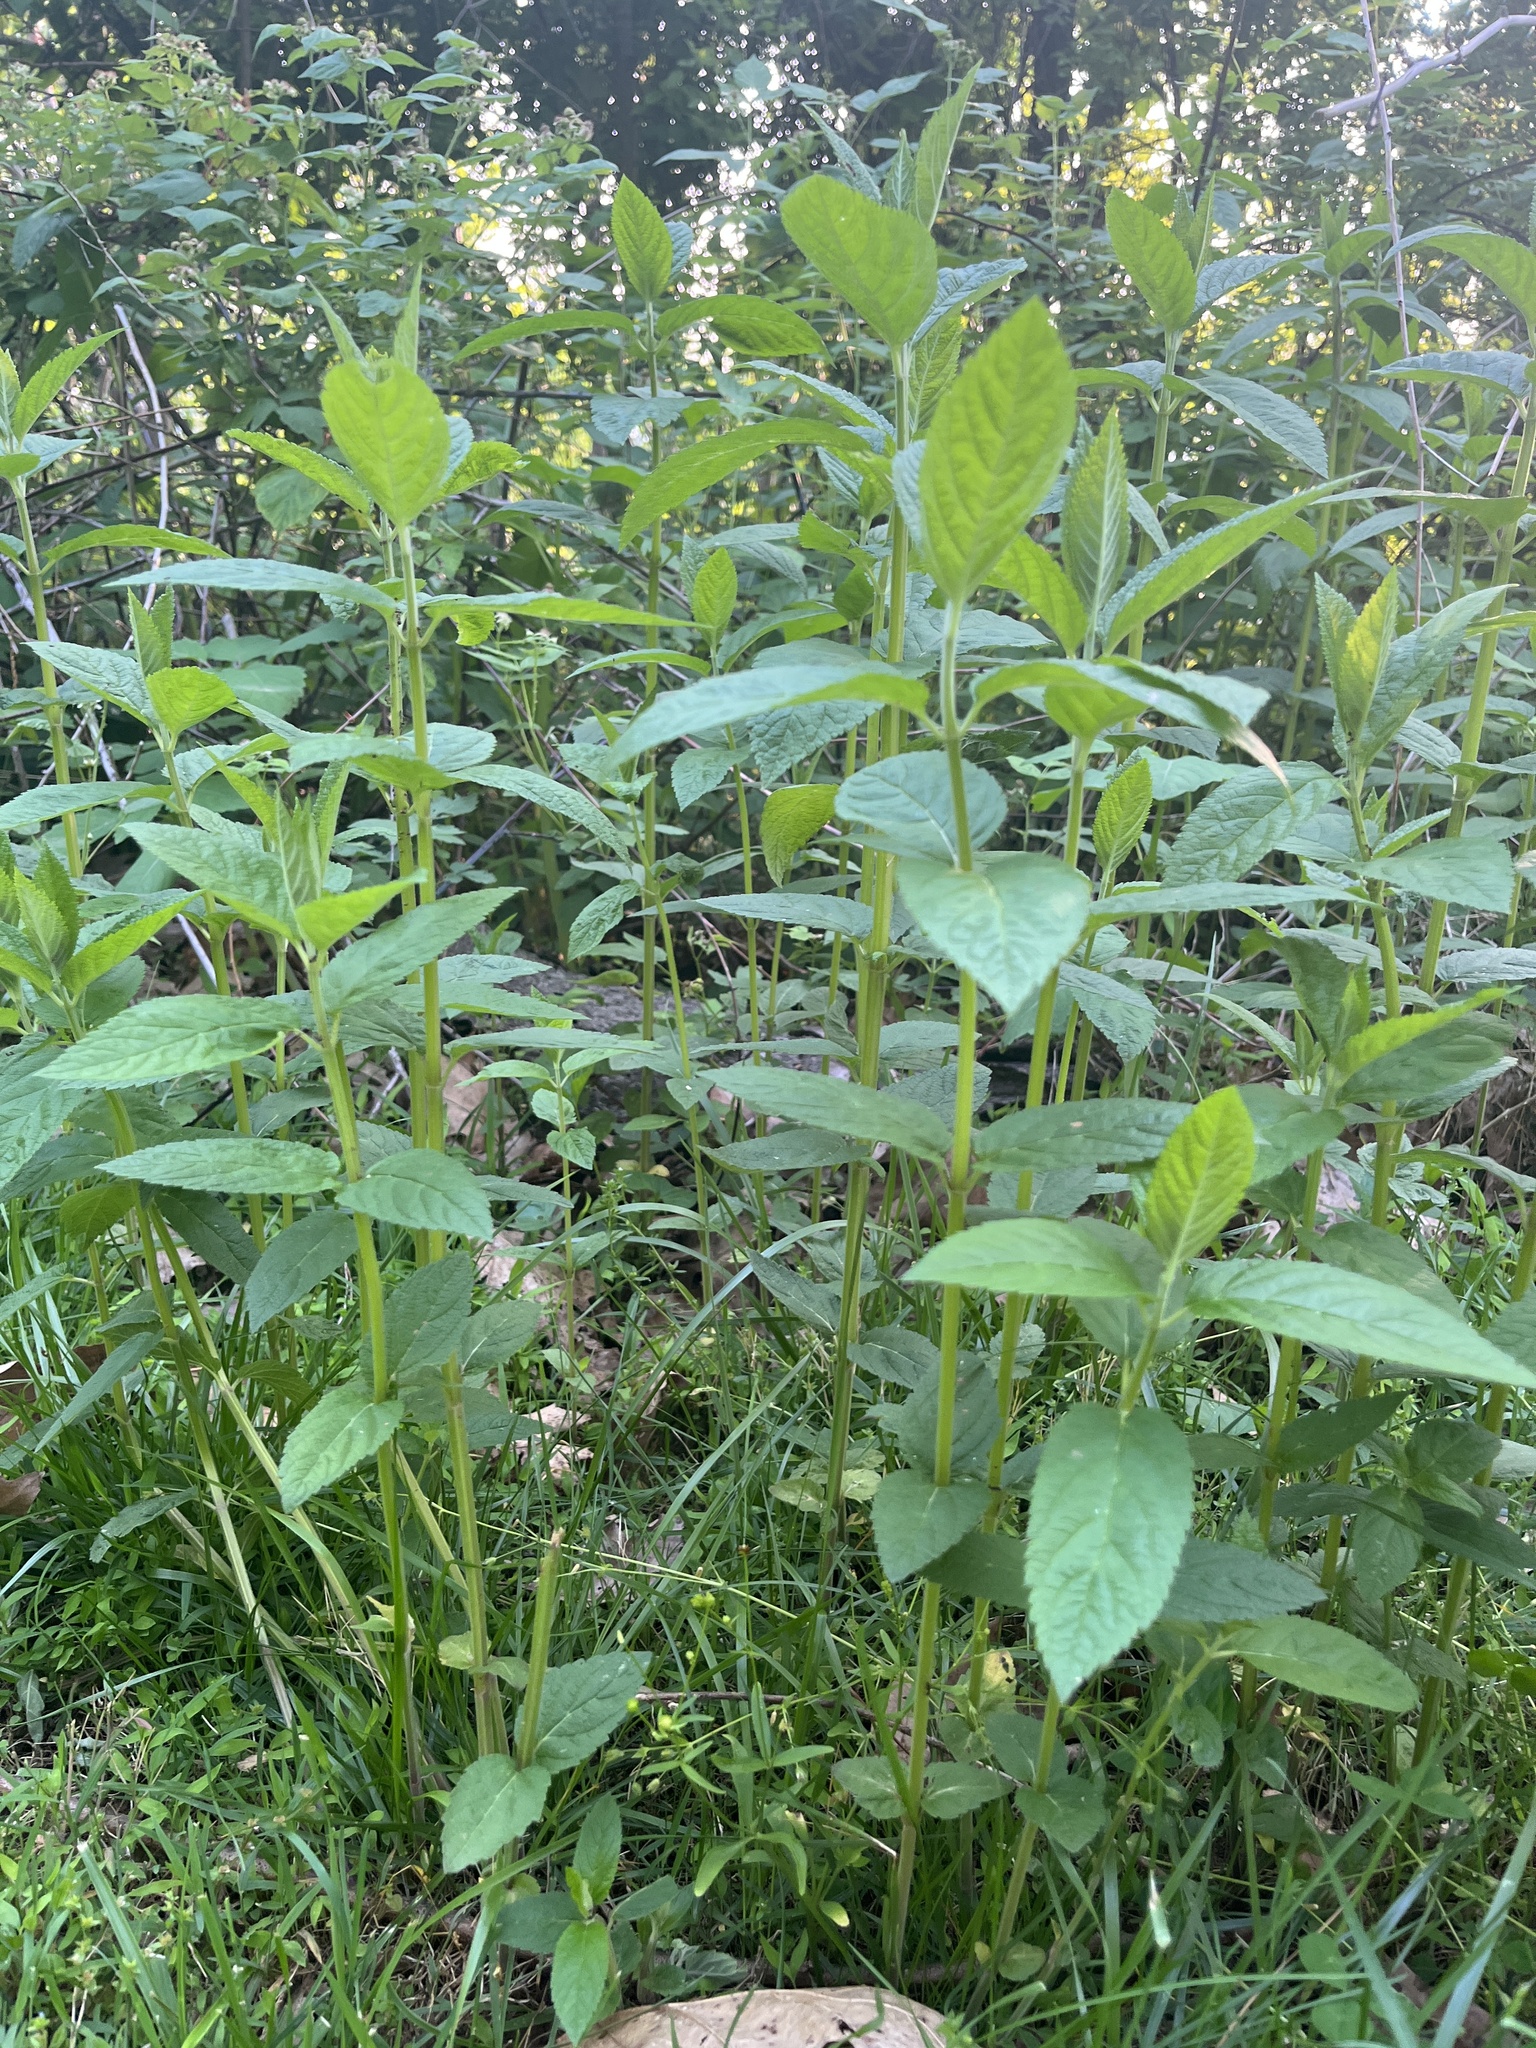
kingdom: Plantae
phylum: Tracheophyta
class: Magnoliopsida
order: Lamiales
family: Lamiaceae
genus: Teucrium
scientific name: Teucrium canadense
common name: American germander
